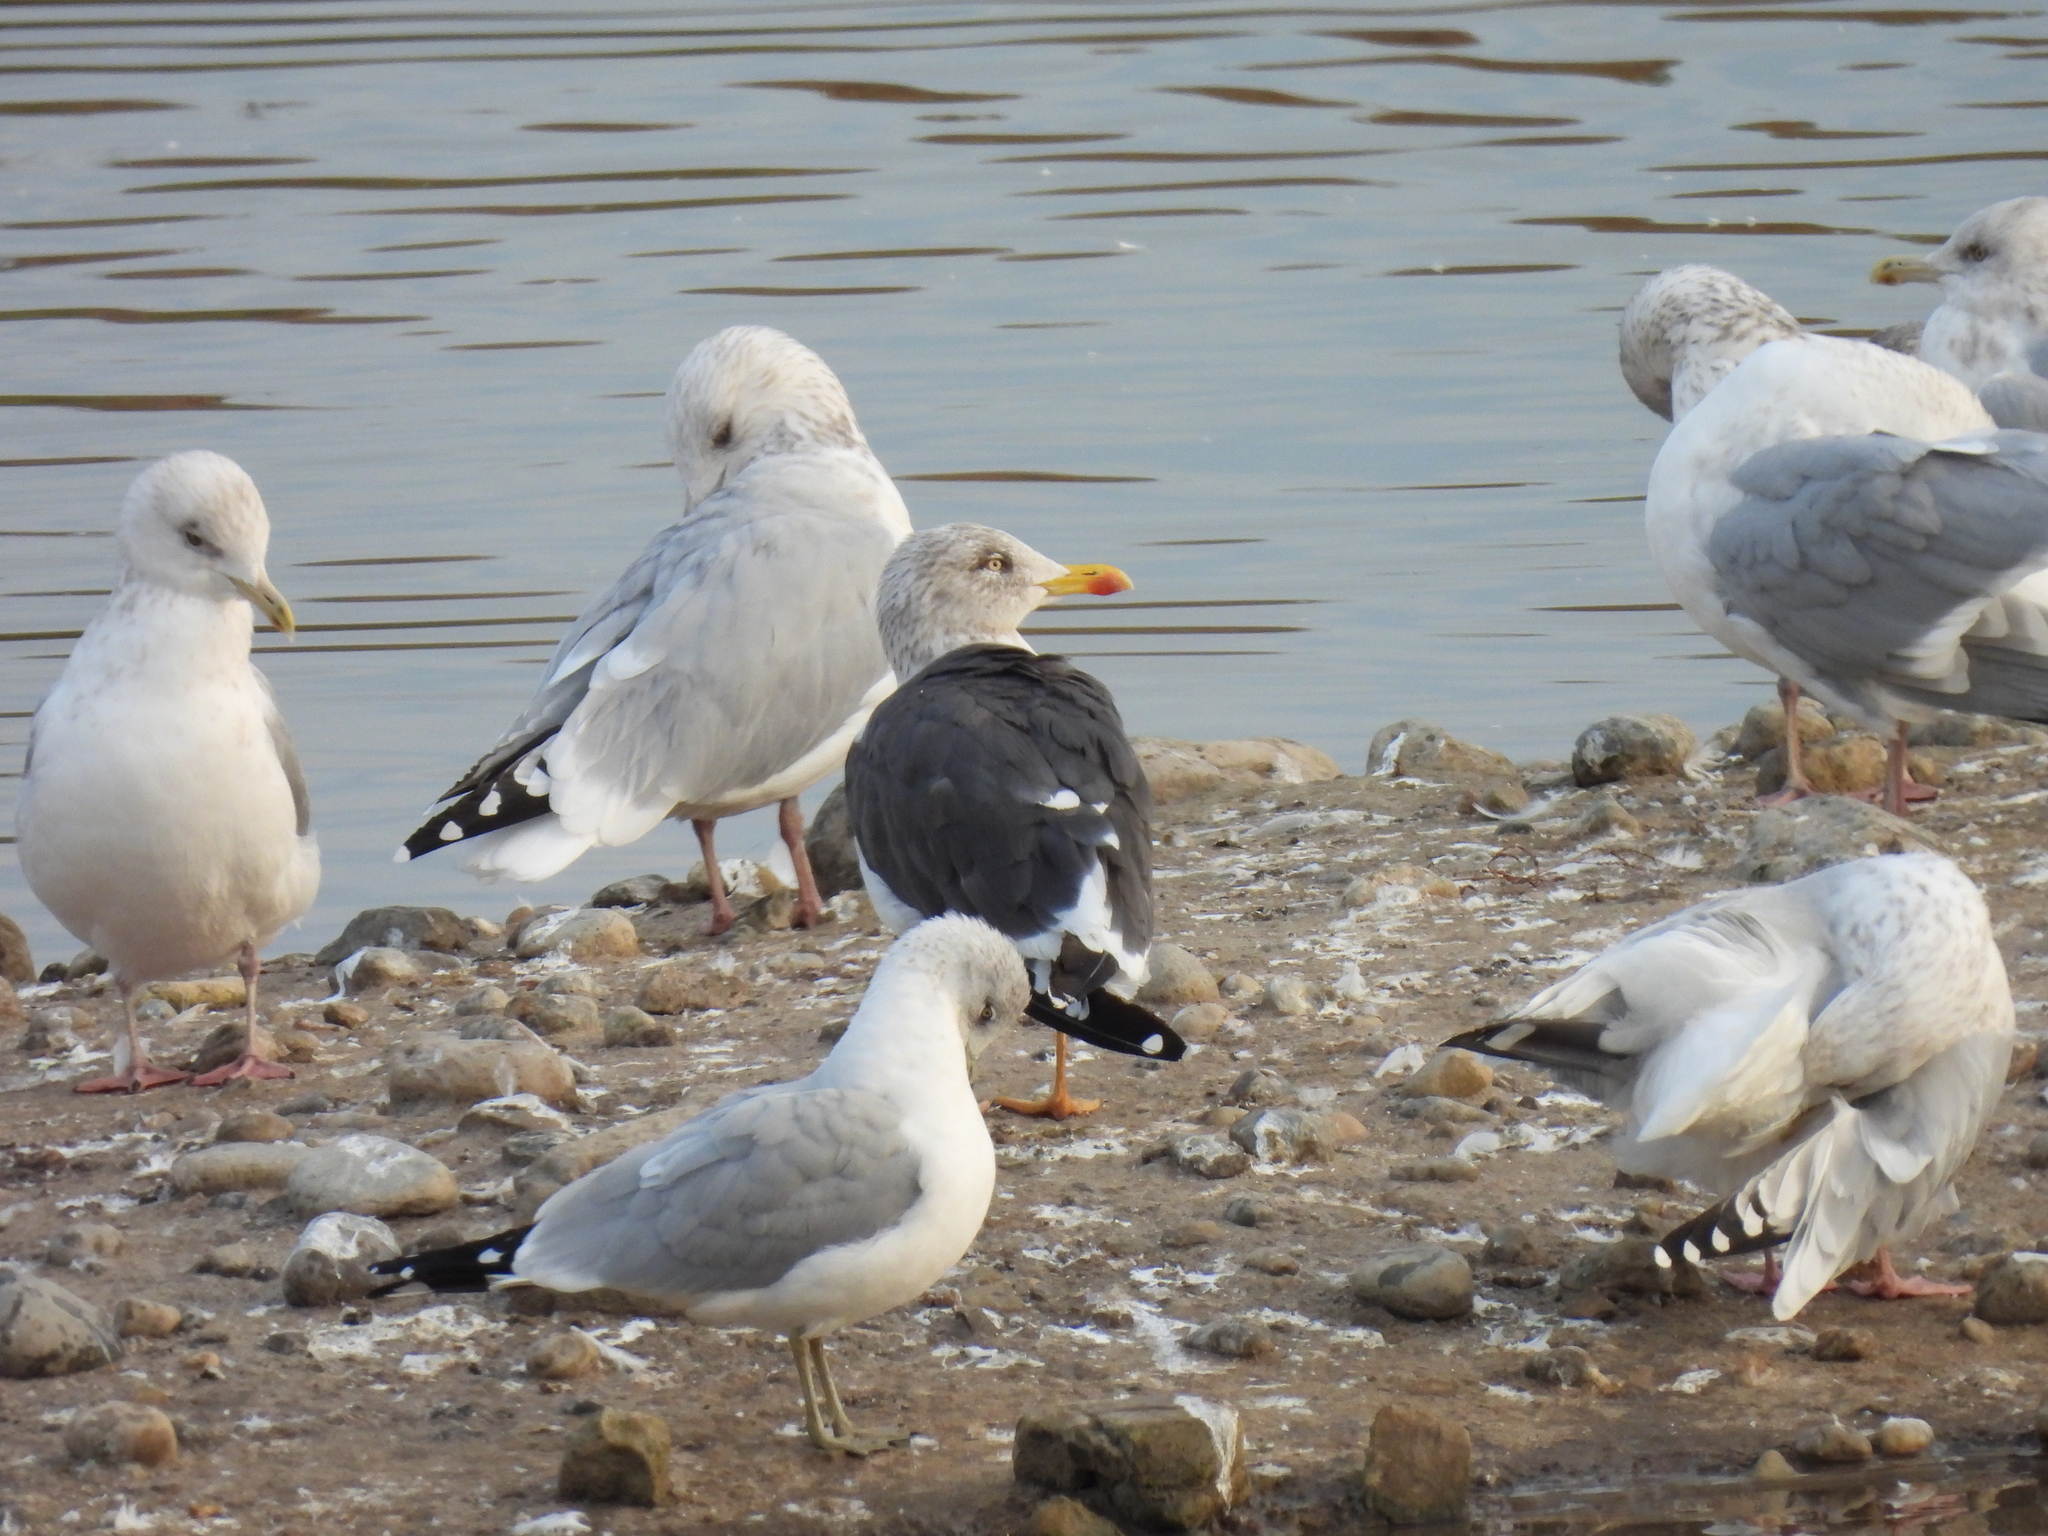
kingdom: Animalia
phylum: Chordata
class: Aves
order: Charadriiformes
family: Laridae
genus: Larus
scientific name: Larus fuscus
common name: Lesser black-backed gull
